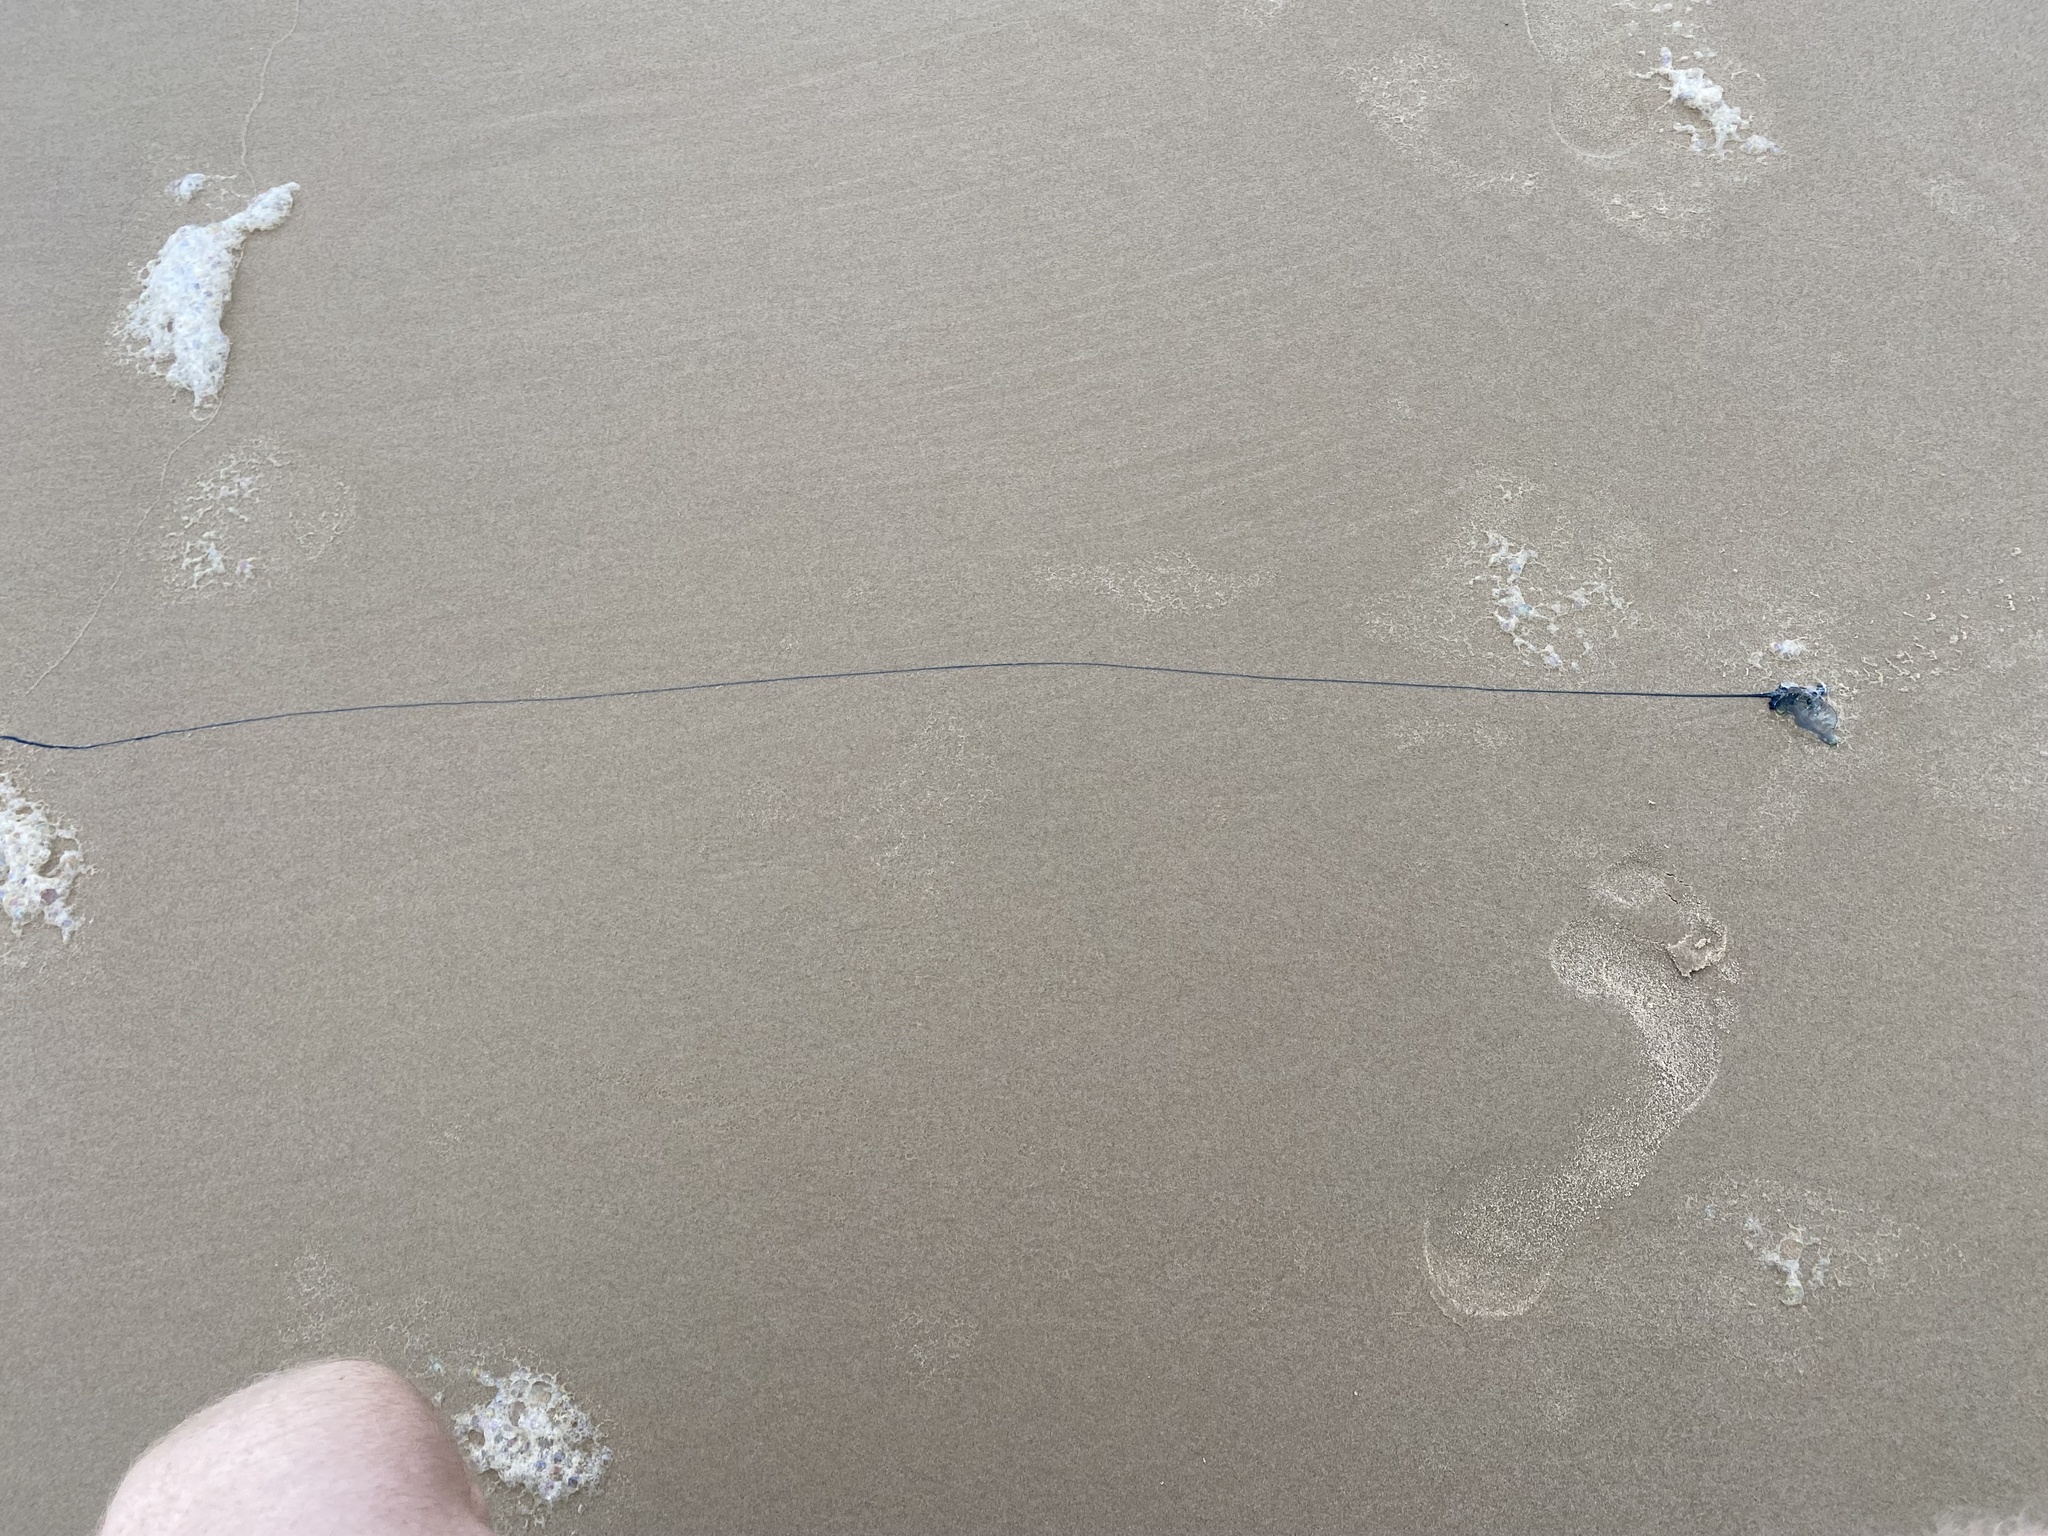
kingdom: Animalia
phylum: Cnidaria
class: Hydrozoa
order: Siphonophorae
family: Physaliidae
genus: Physalia
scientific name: Physalia physalis
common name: Portuguese man-of-war
